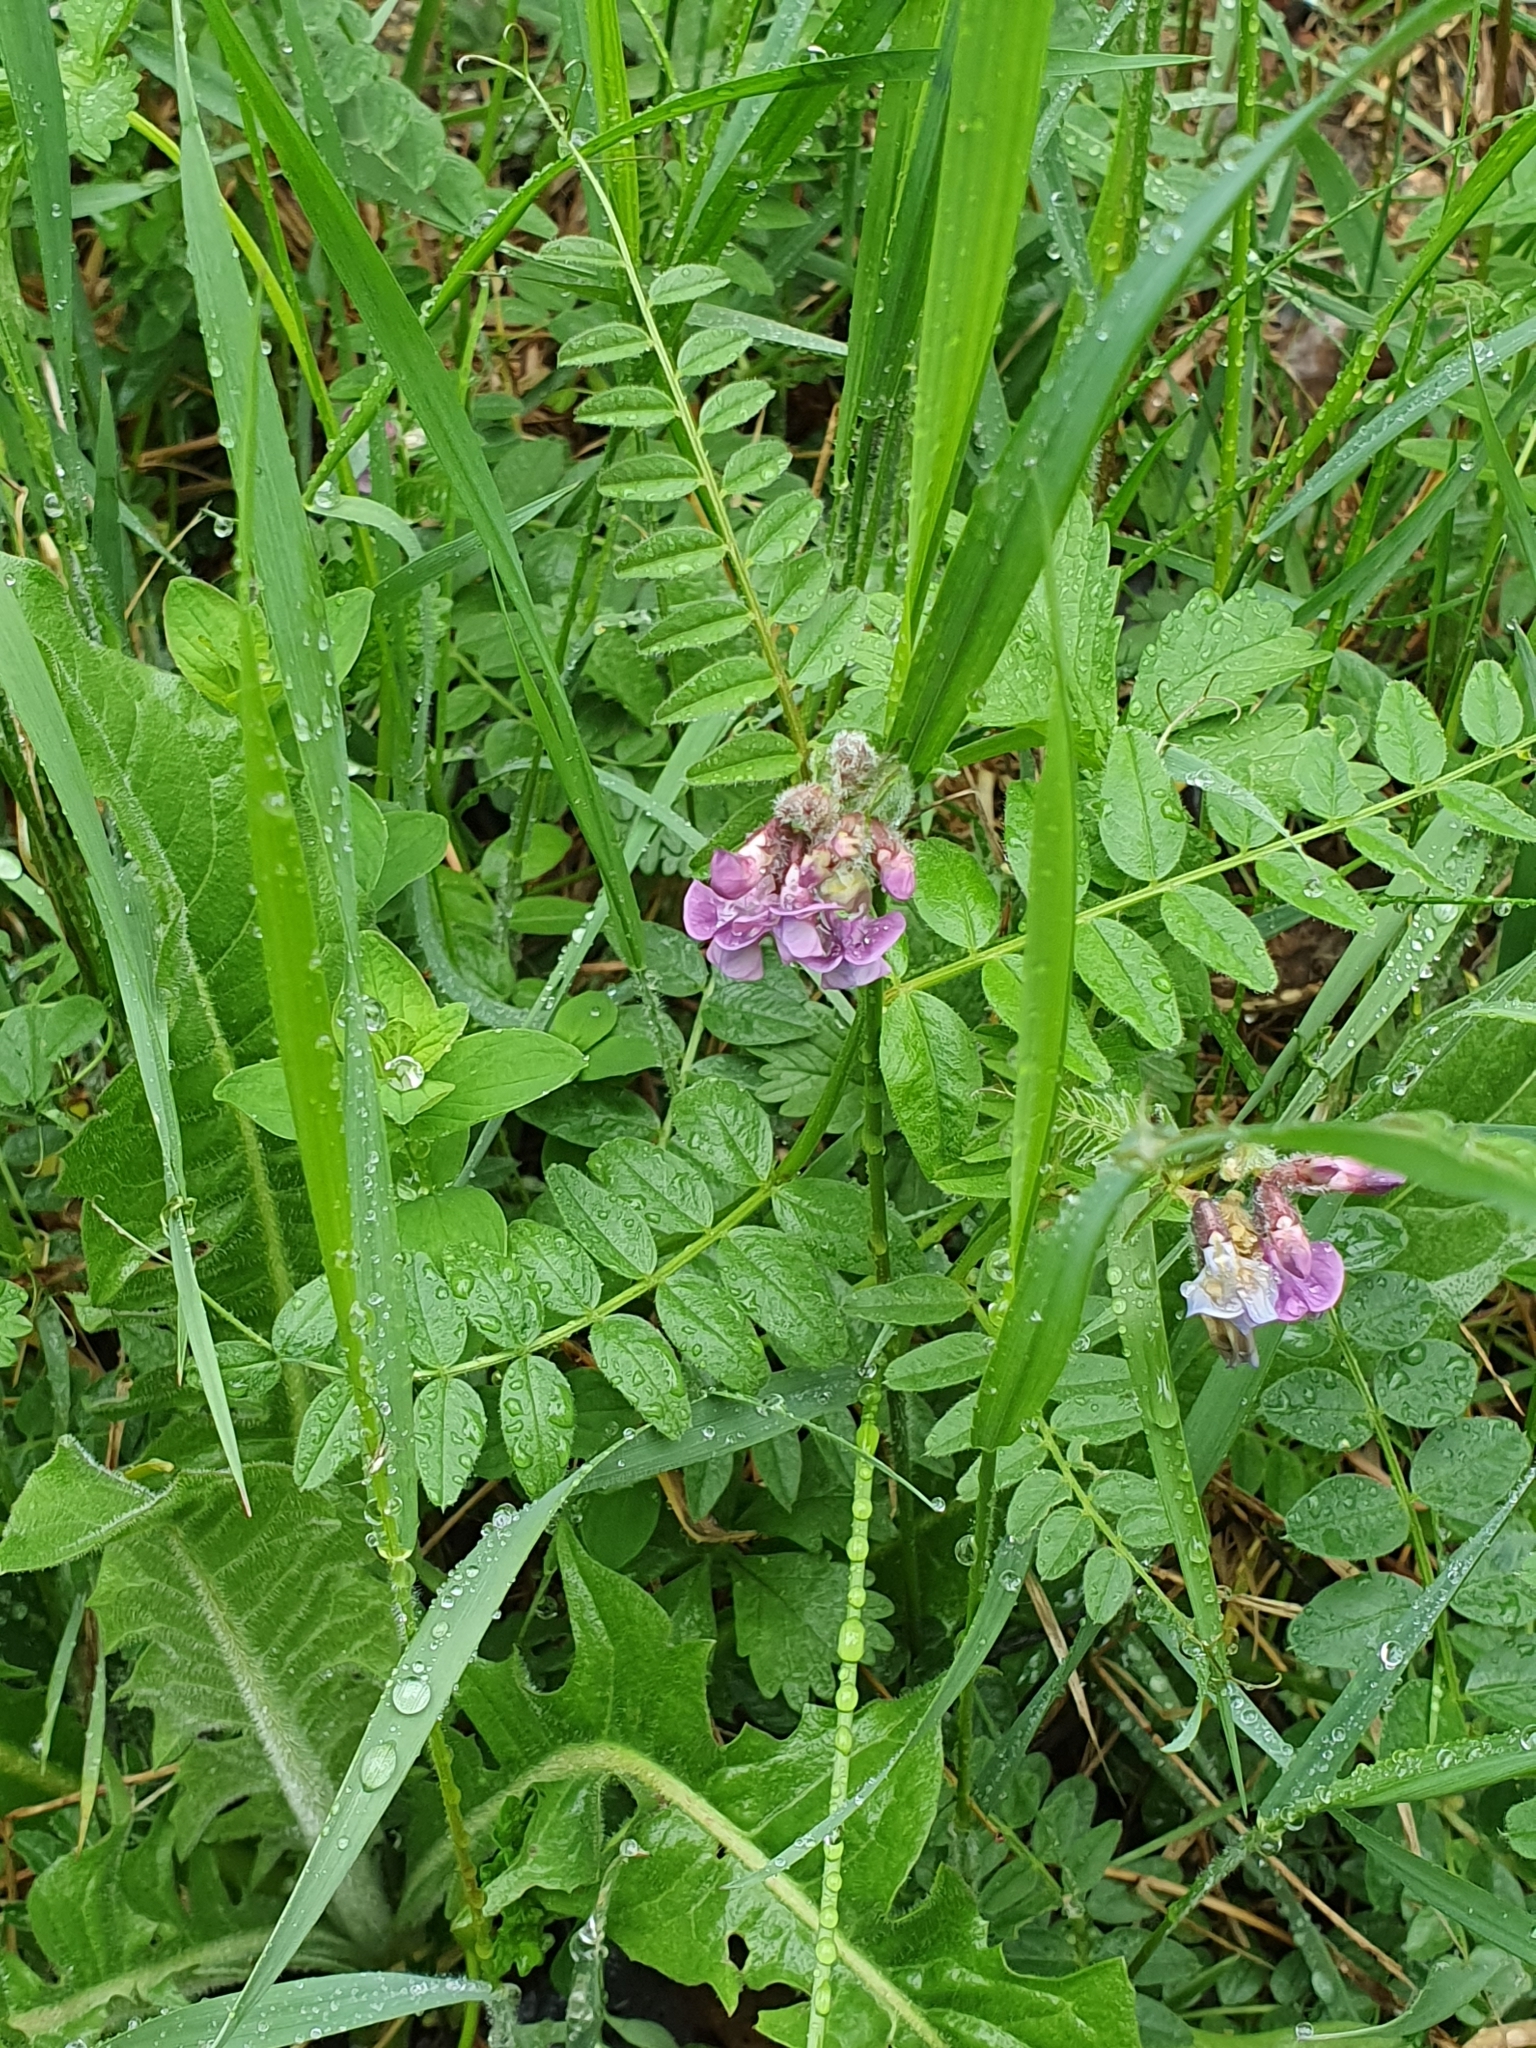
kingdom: Plantae
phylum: Tracheophyta
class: Magnoliopsida
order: Fabales
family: Fabaceae
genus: Vicia
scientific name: Vicia sepium
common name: Bush vetch
